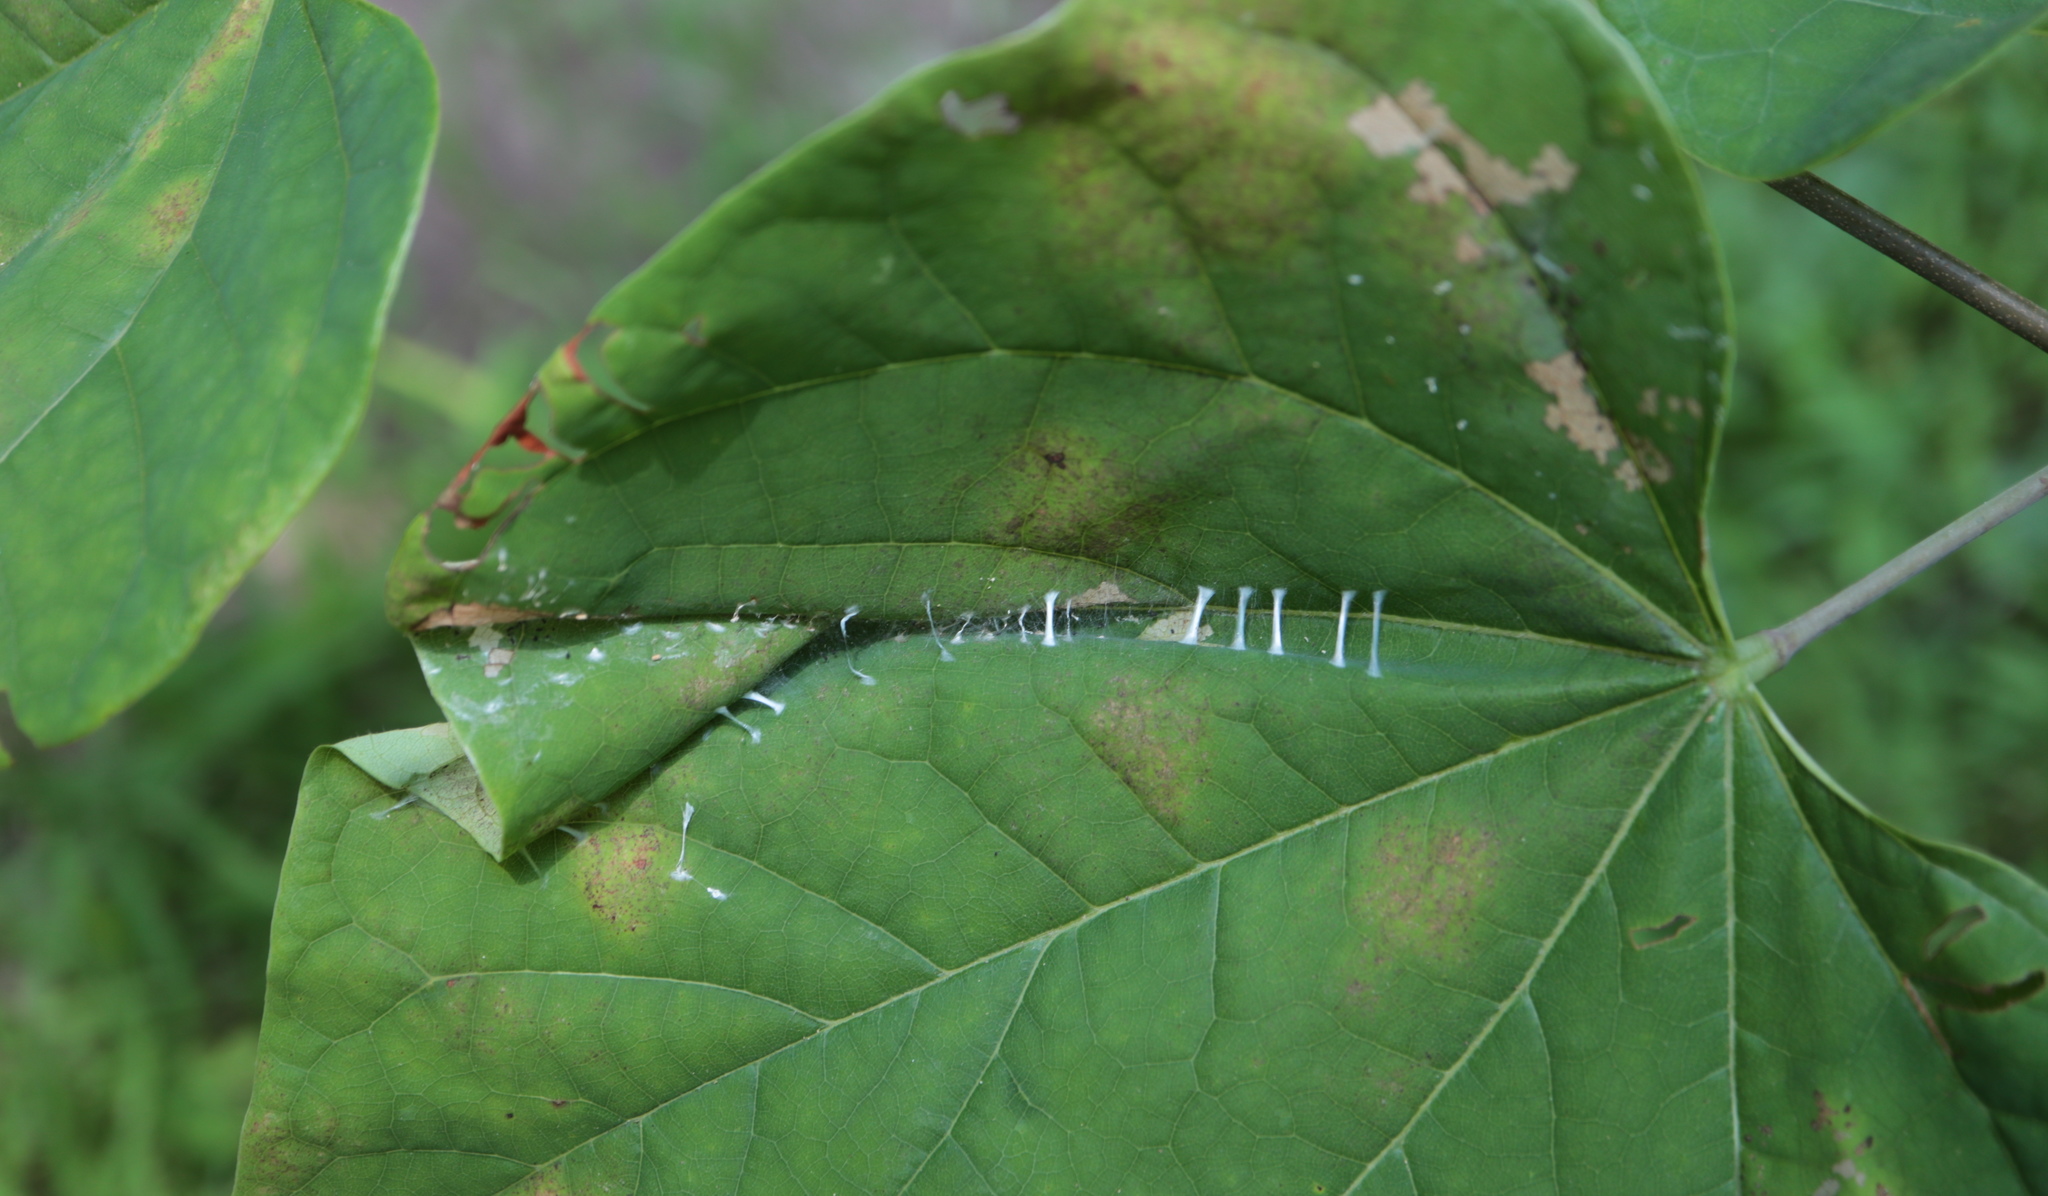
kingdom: Animalia
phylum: Arthropoda
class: Insecta
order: Lepidoptera
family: Gelechiidae
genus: Fascista
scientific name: Fascista cercerisella
